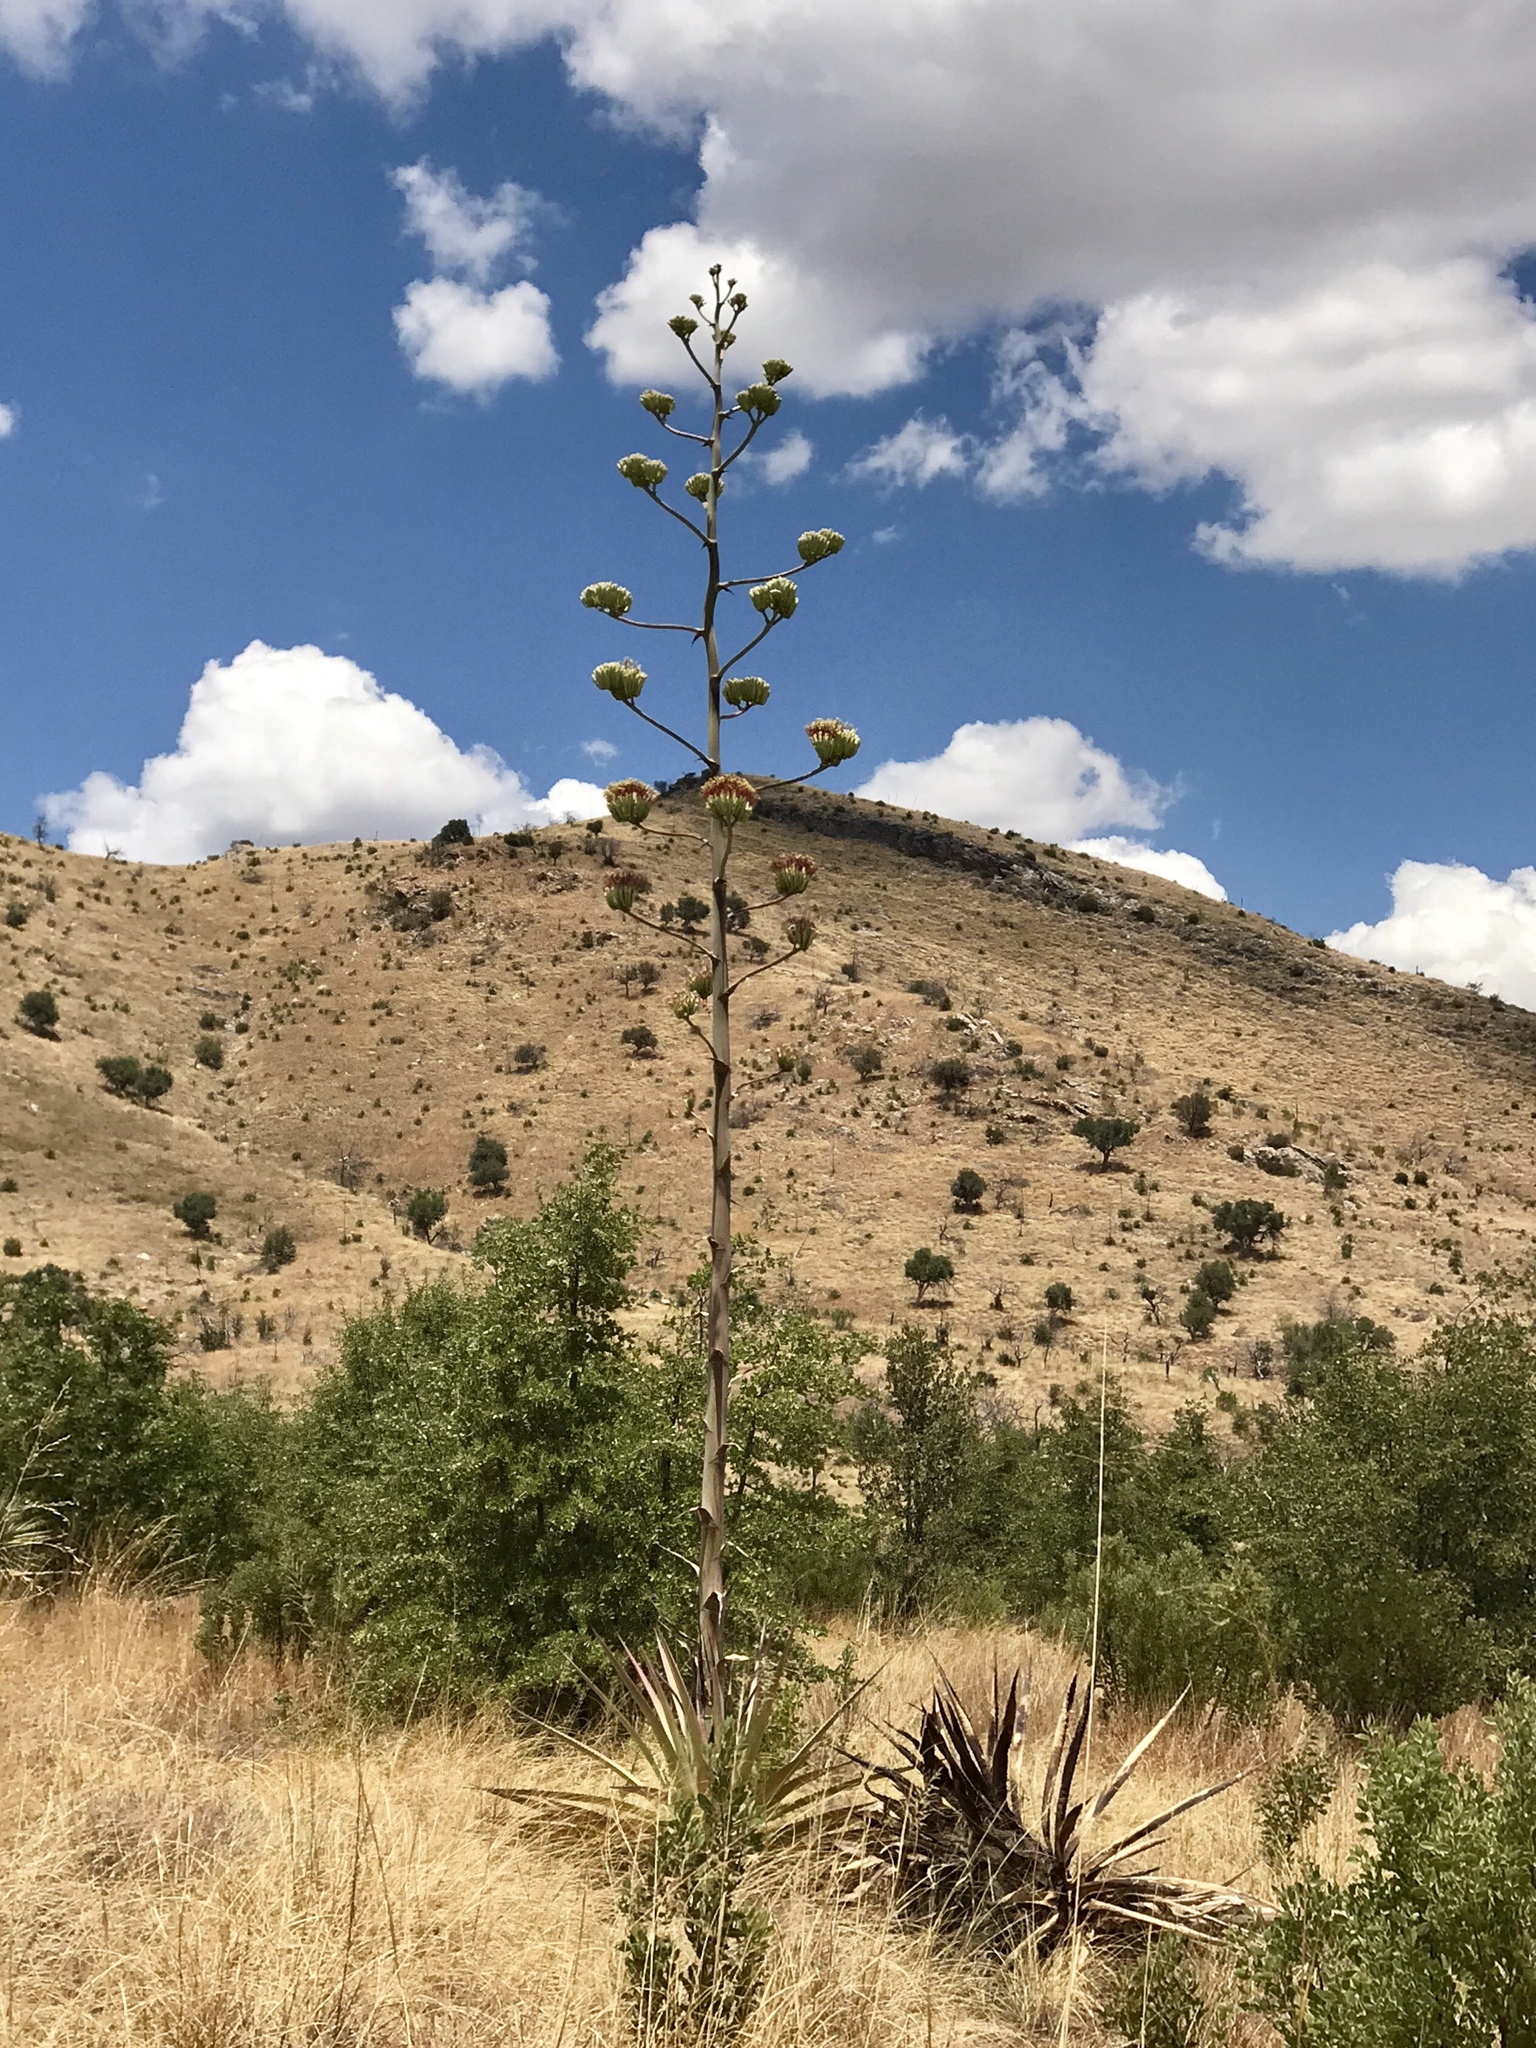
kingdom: Plantae
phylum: Tracheophyta
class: Liliopsida
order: Asparagales
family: Asparagaceae
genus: Agave
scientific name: Agave palmeri
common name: Palmer agave
